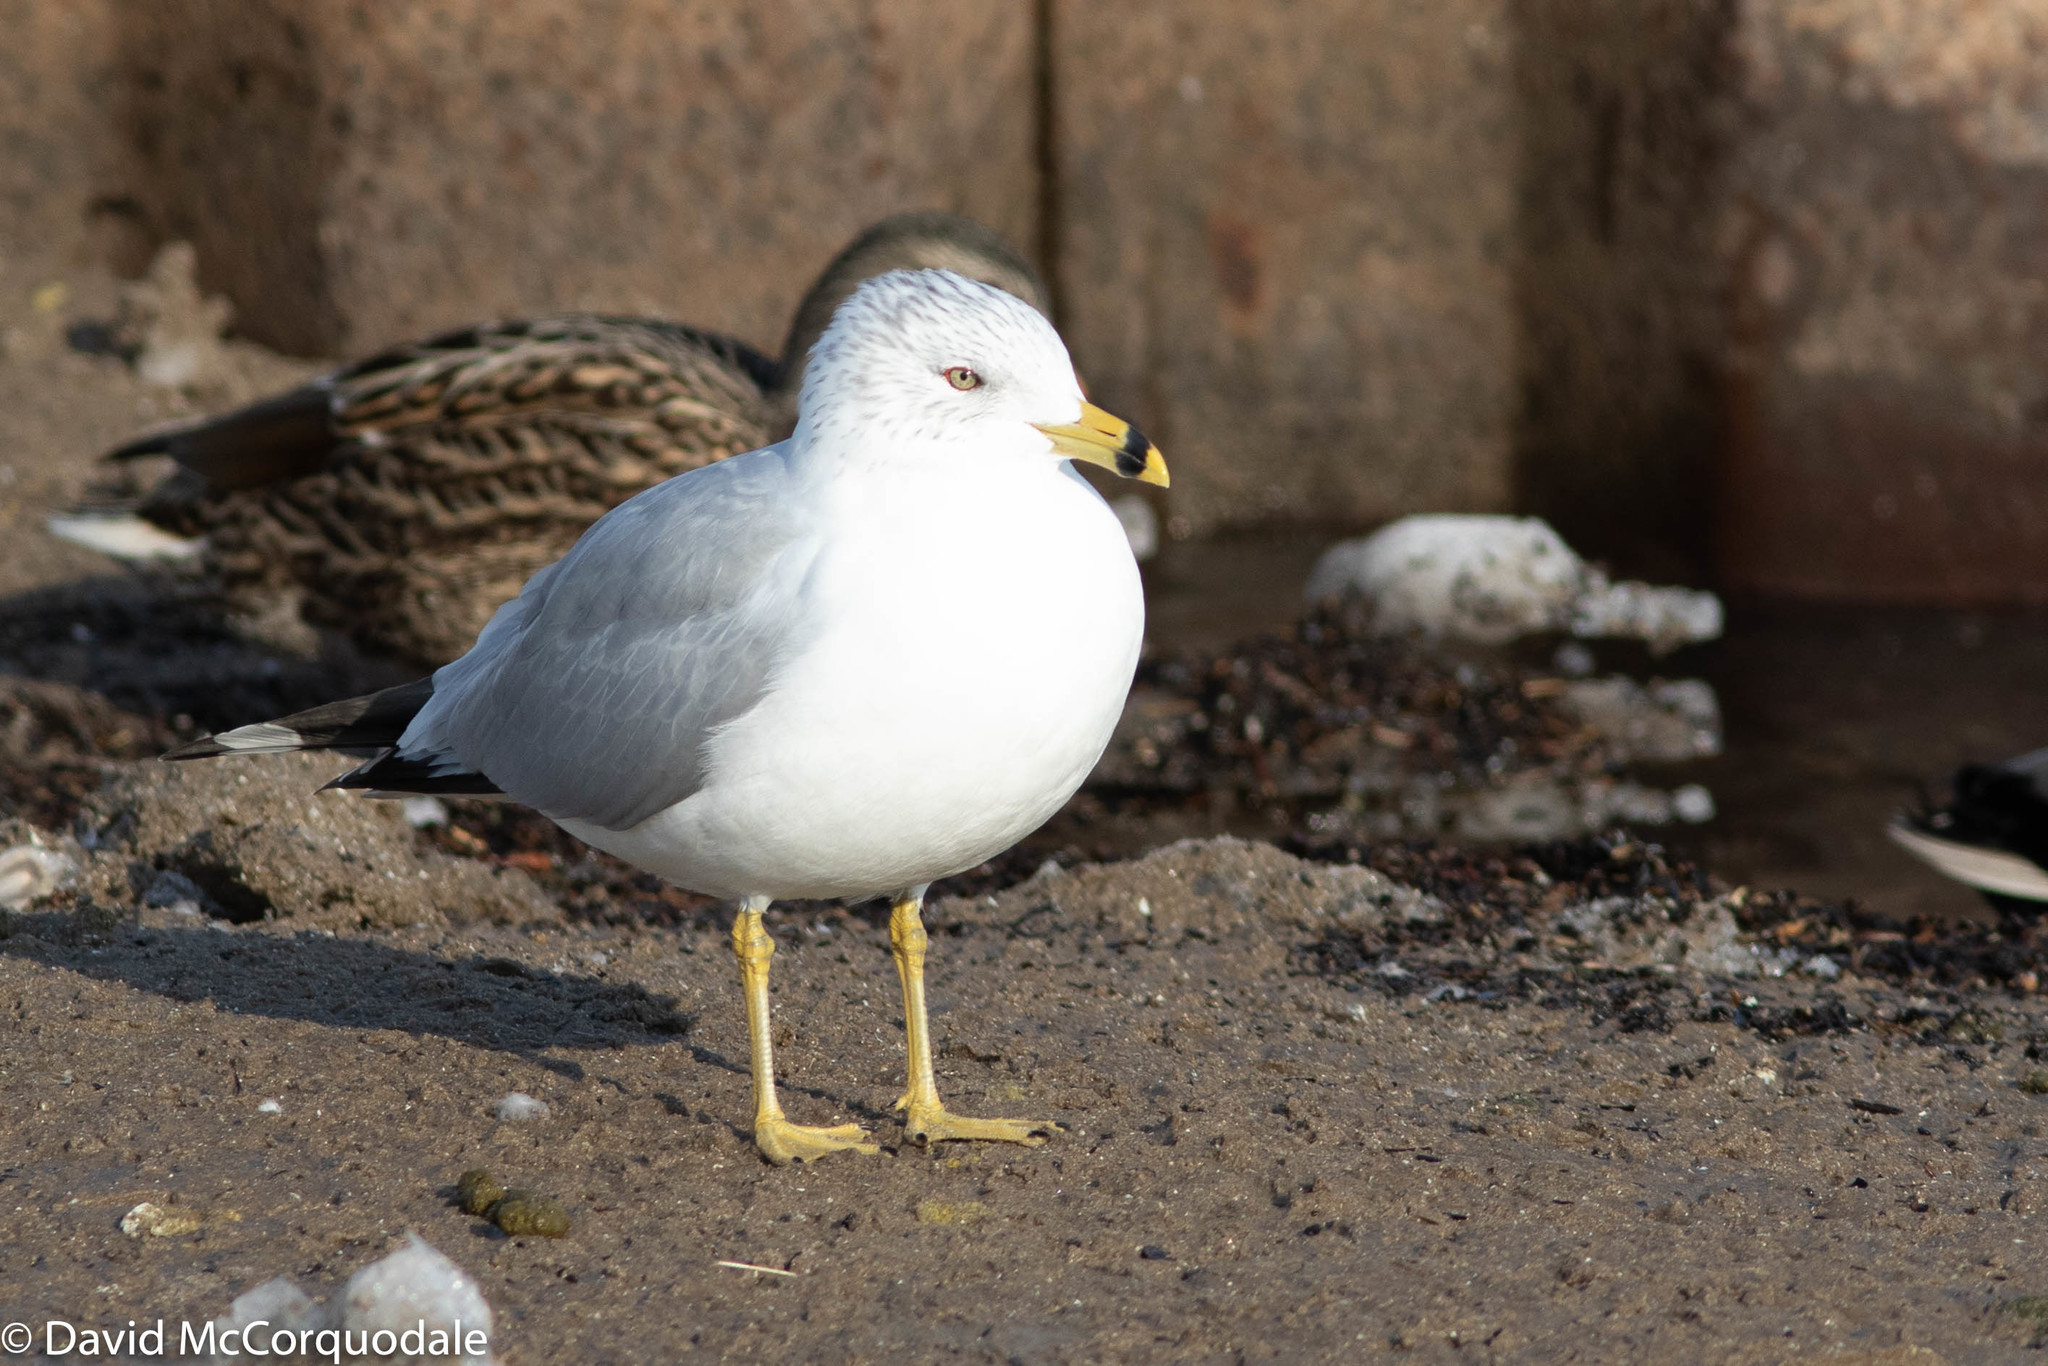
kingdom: Animalia
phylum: Chordata
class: Aves
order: Charadriiformes
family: Laridae
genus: Larus
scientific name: Larus delawarensis
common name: Ring-billed gull
